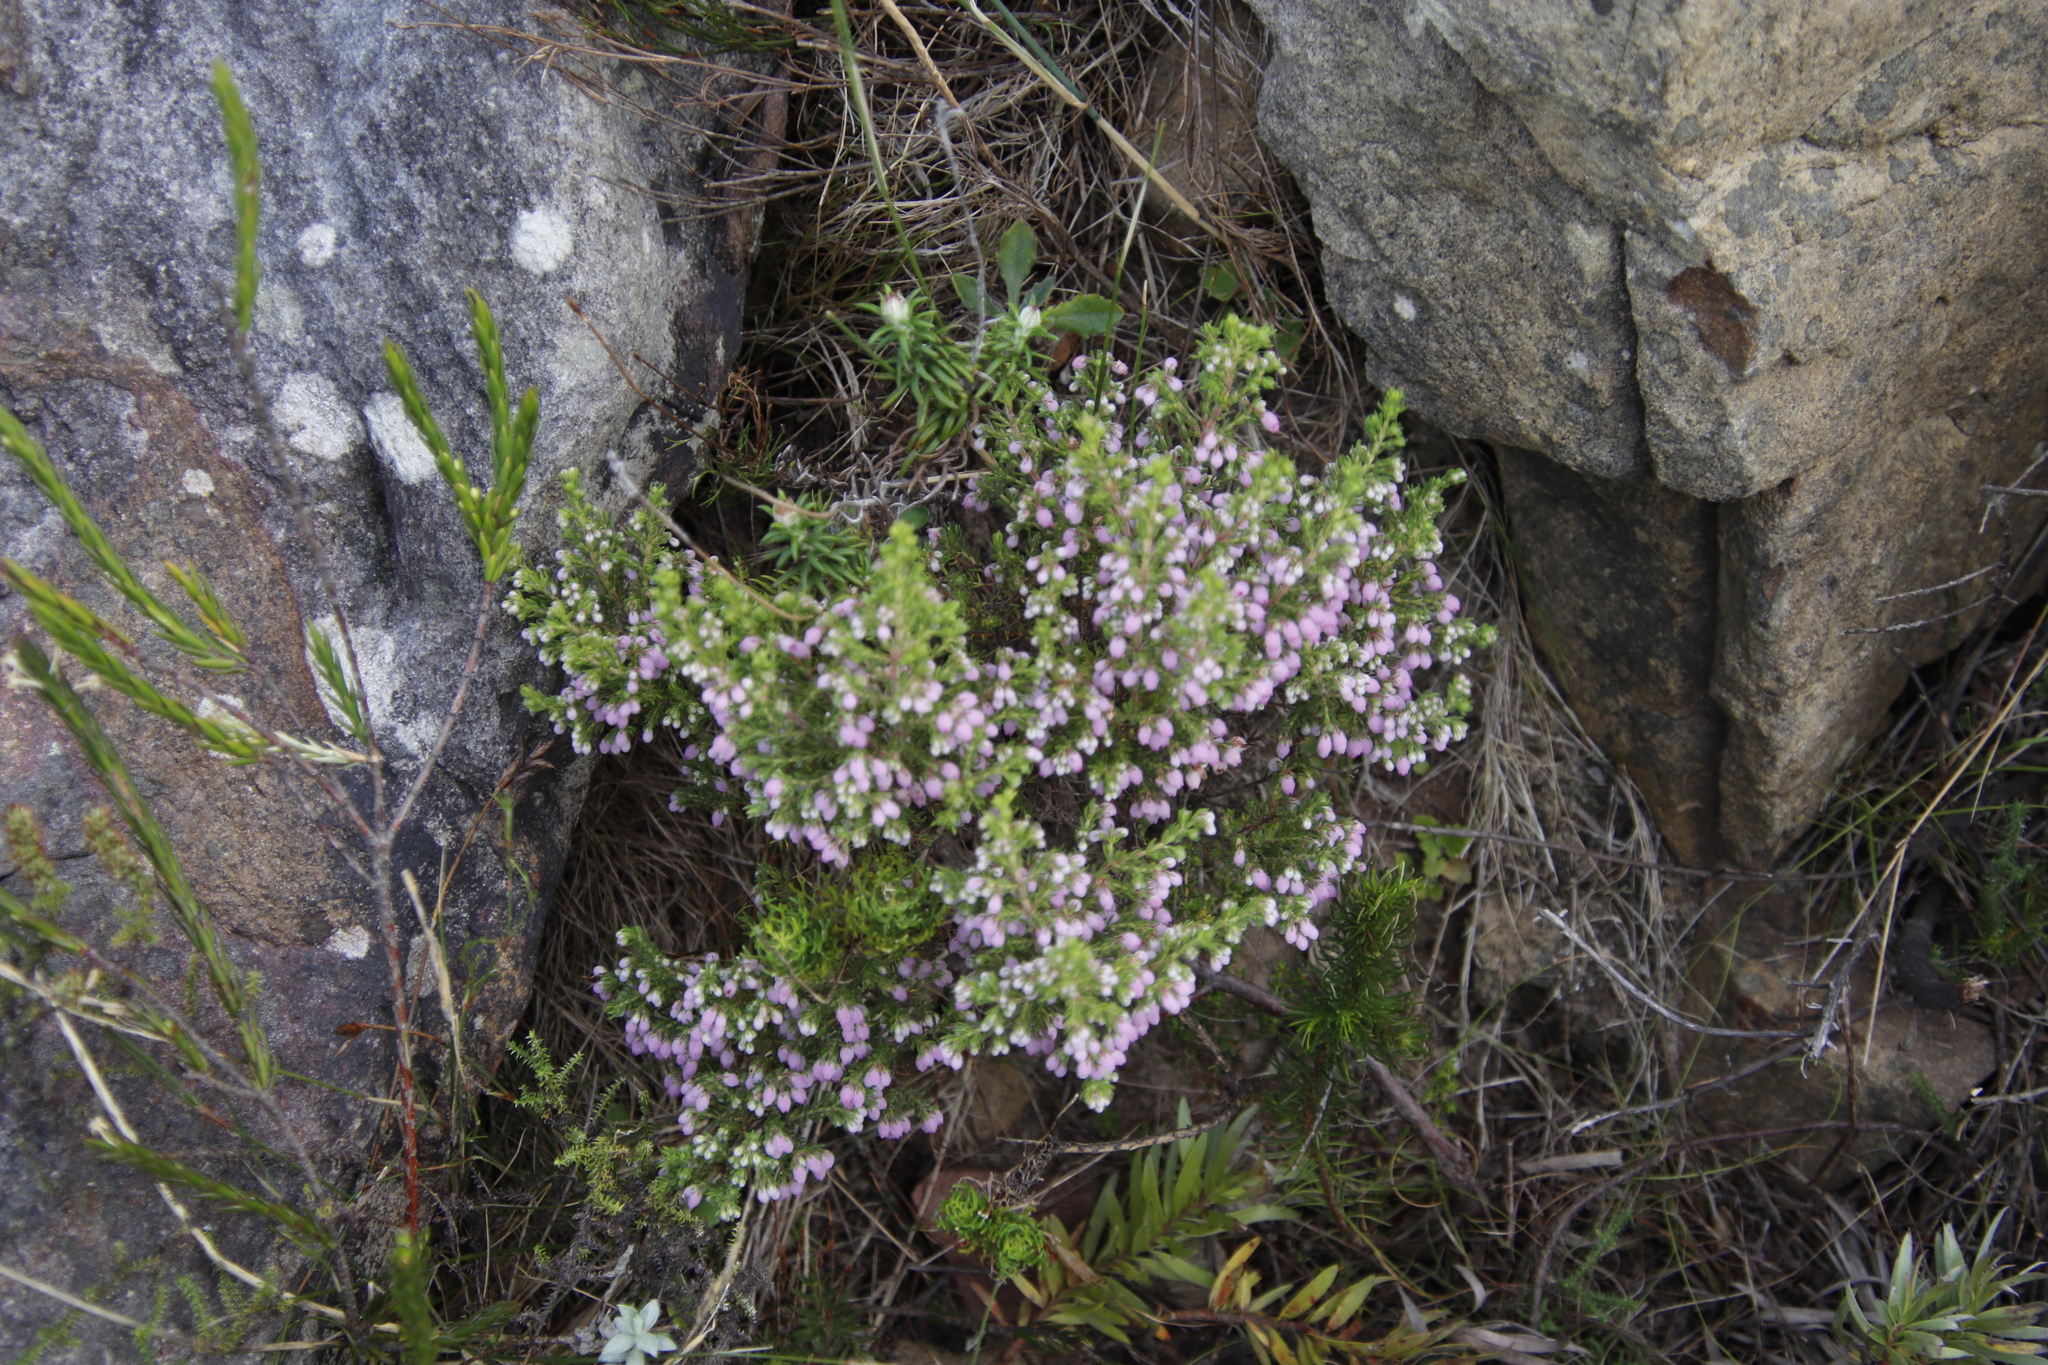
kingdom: Plantae
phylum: Tracheophyta
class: Magnoliopsida
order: Ericales
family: Ericaceae
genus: Erica
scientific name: Erica hirtiflora
